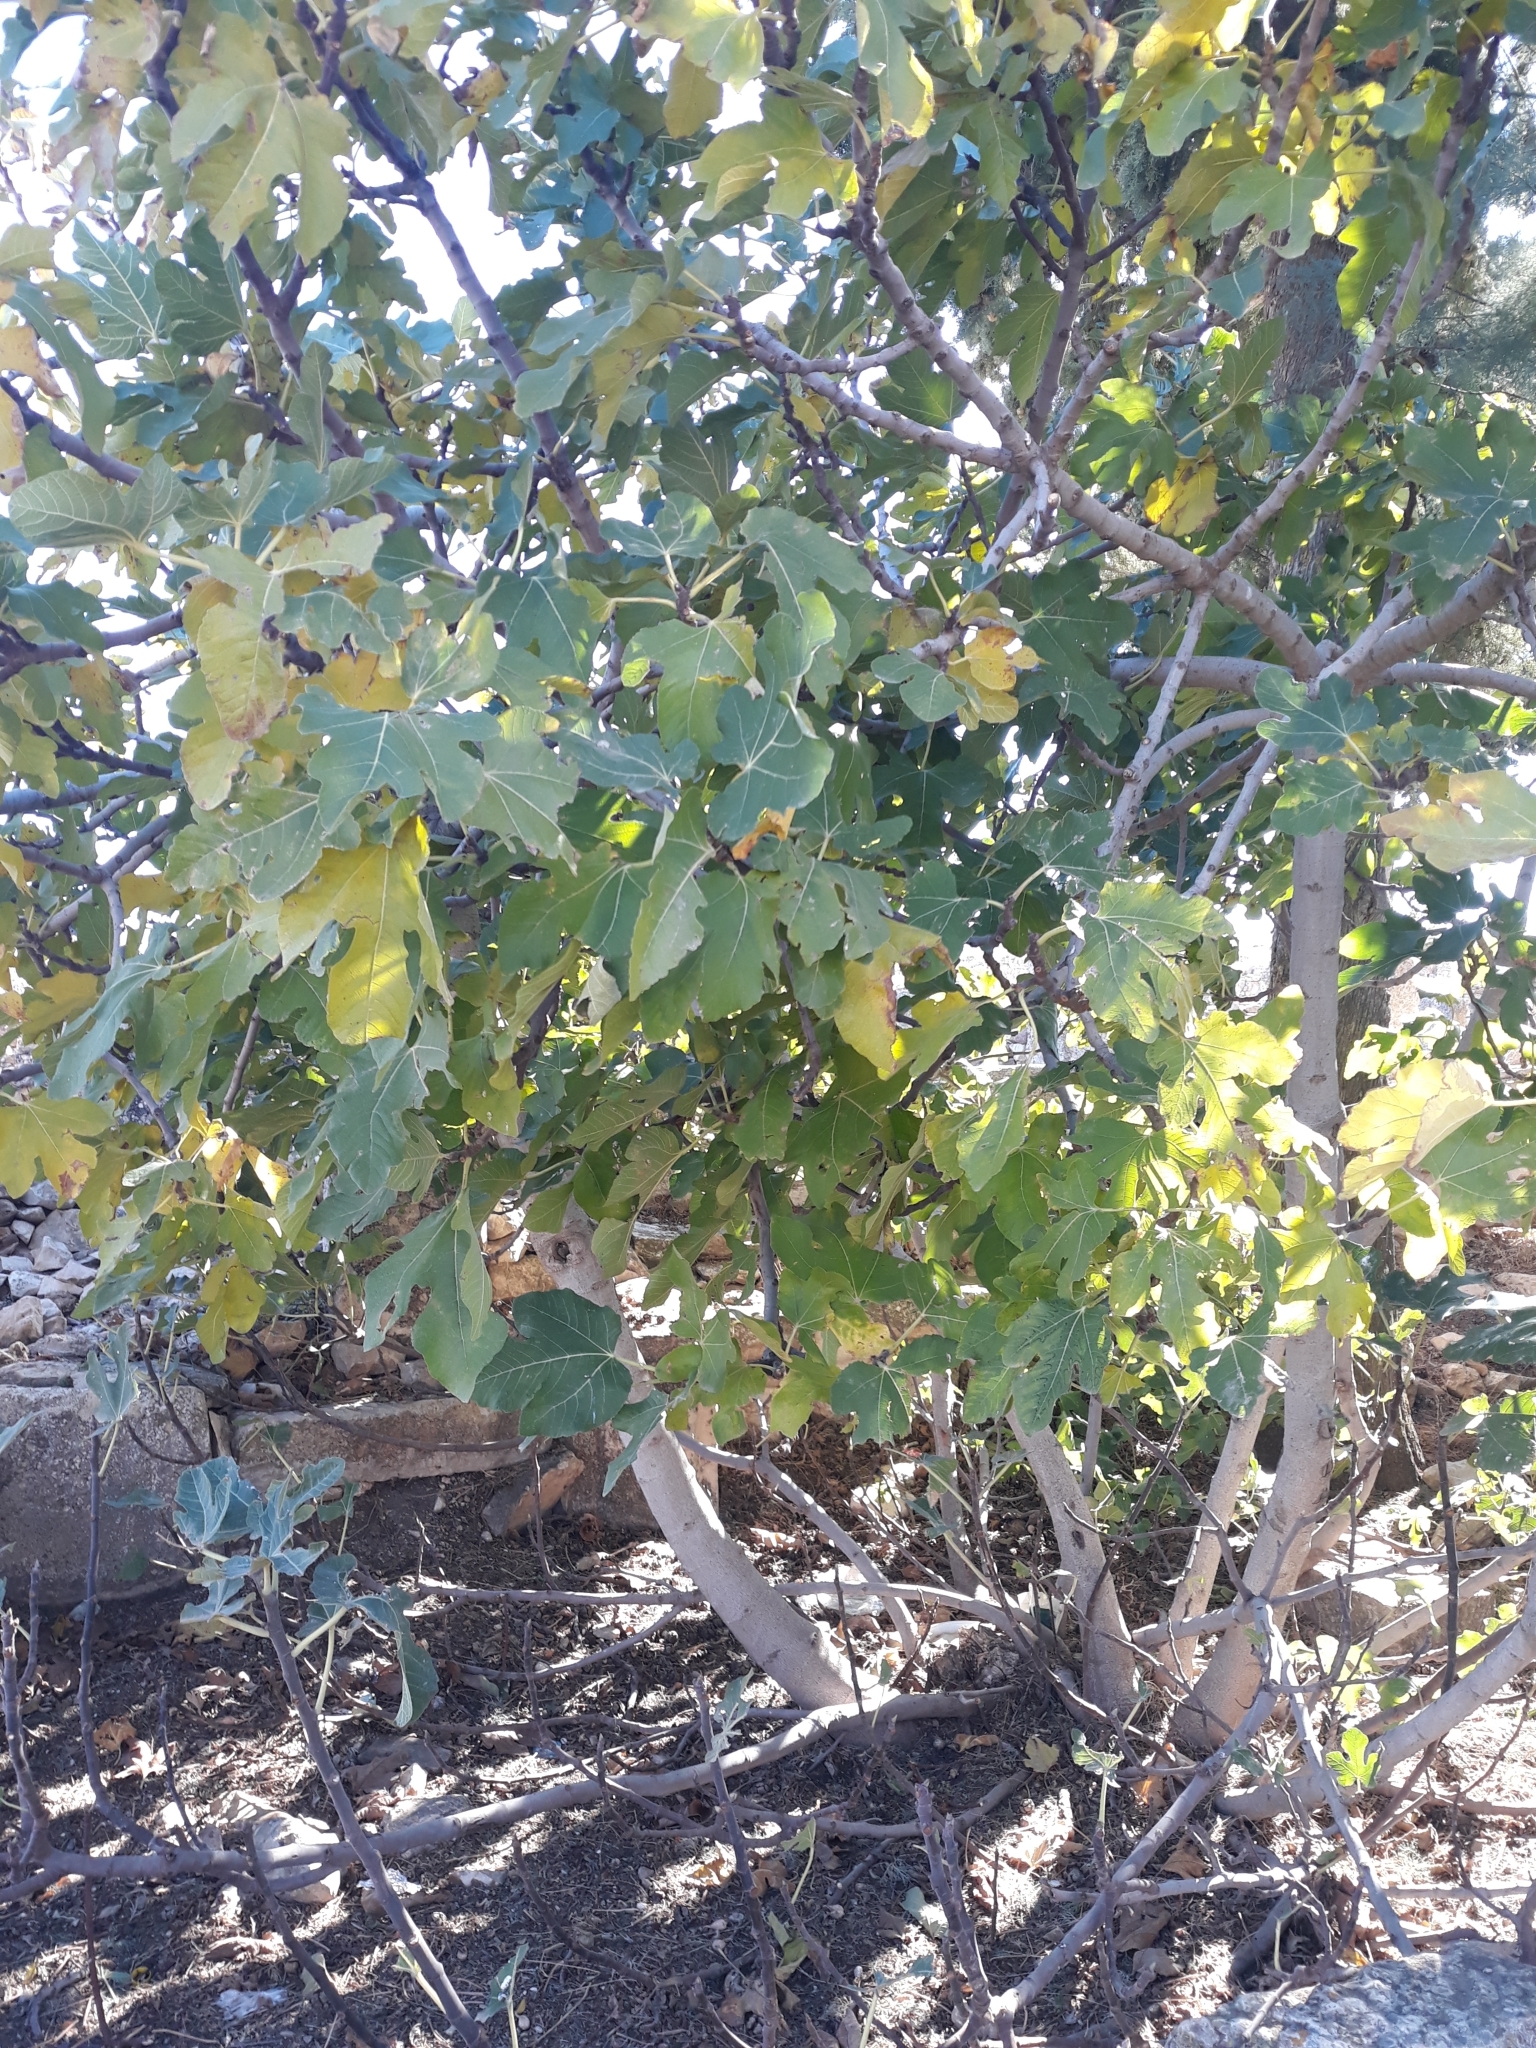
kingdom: Plantae
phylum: Tracheophyta
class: Magnoliopsida
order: Rosales
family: Moraceae
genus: Ficus
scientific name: Ficus carica
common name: Fig
